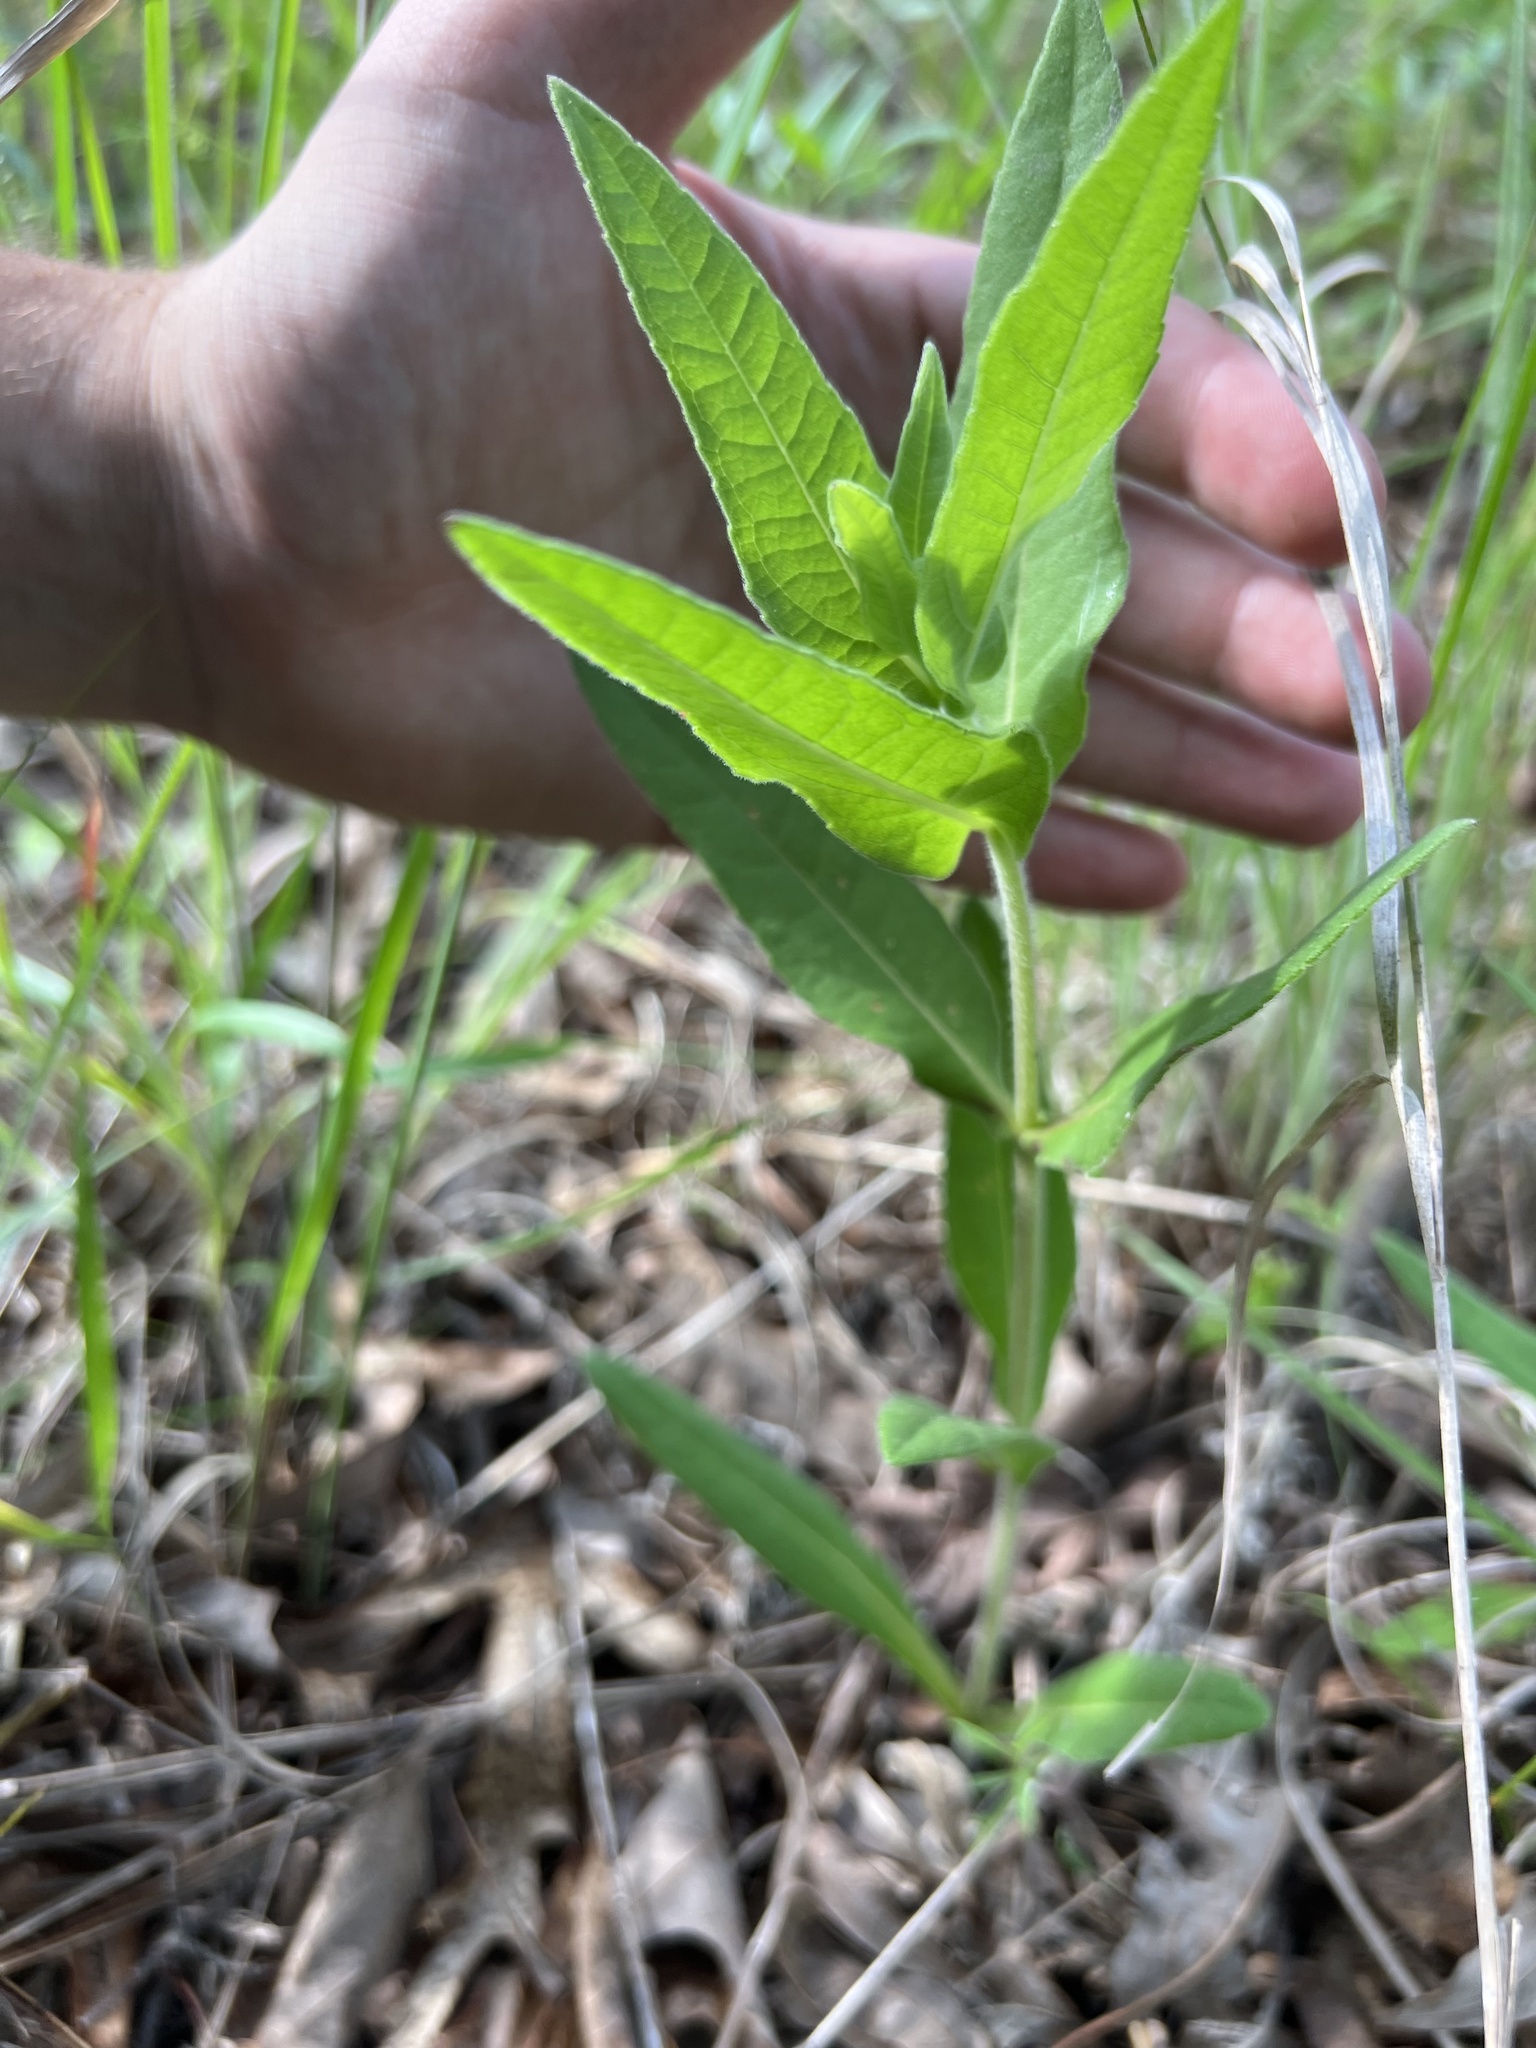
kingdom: Plantae
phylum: Tracheophyta
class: Magnoliopsida
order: Asterales
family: Asteraceae
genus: Helianthus
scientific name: Helianthus mollis
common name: Ashy sunflower
